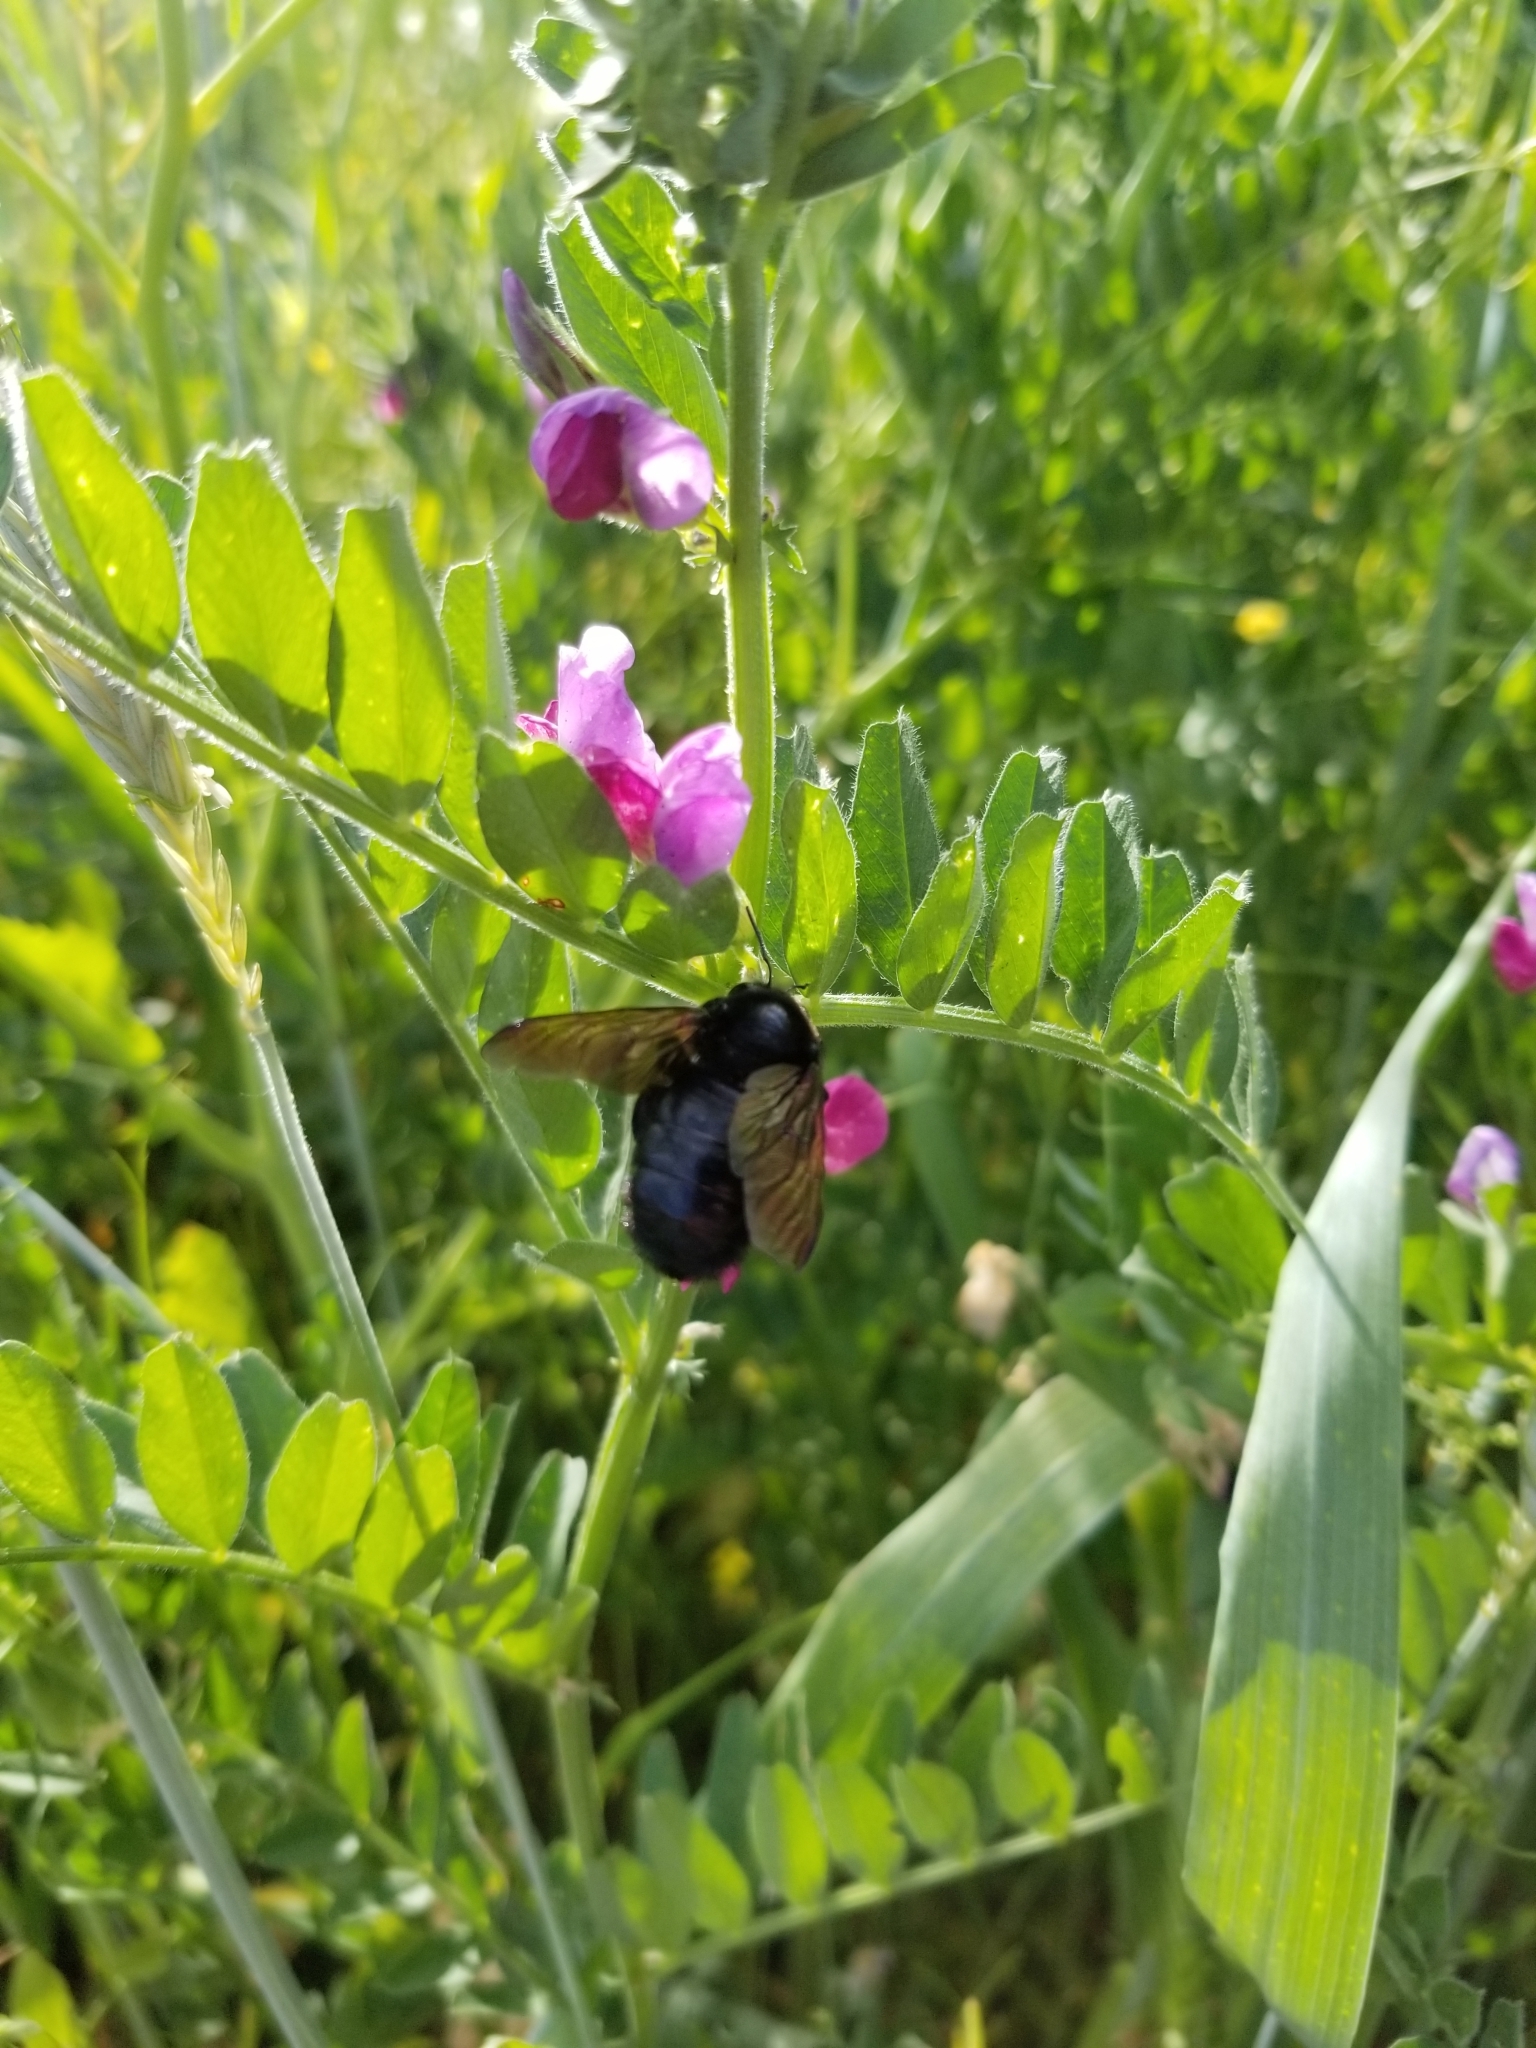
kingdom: Animalia
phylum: Arthropoda
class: Insecta
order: Hymenoptera
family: Apidae
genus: Xylocopa
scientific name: Xylocopa sonorina
